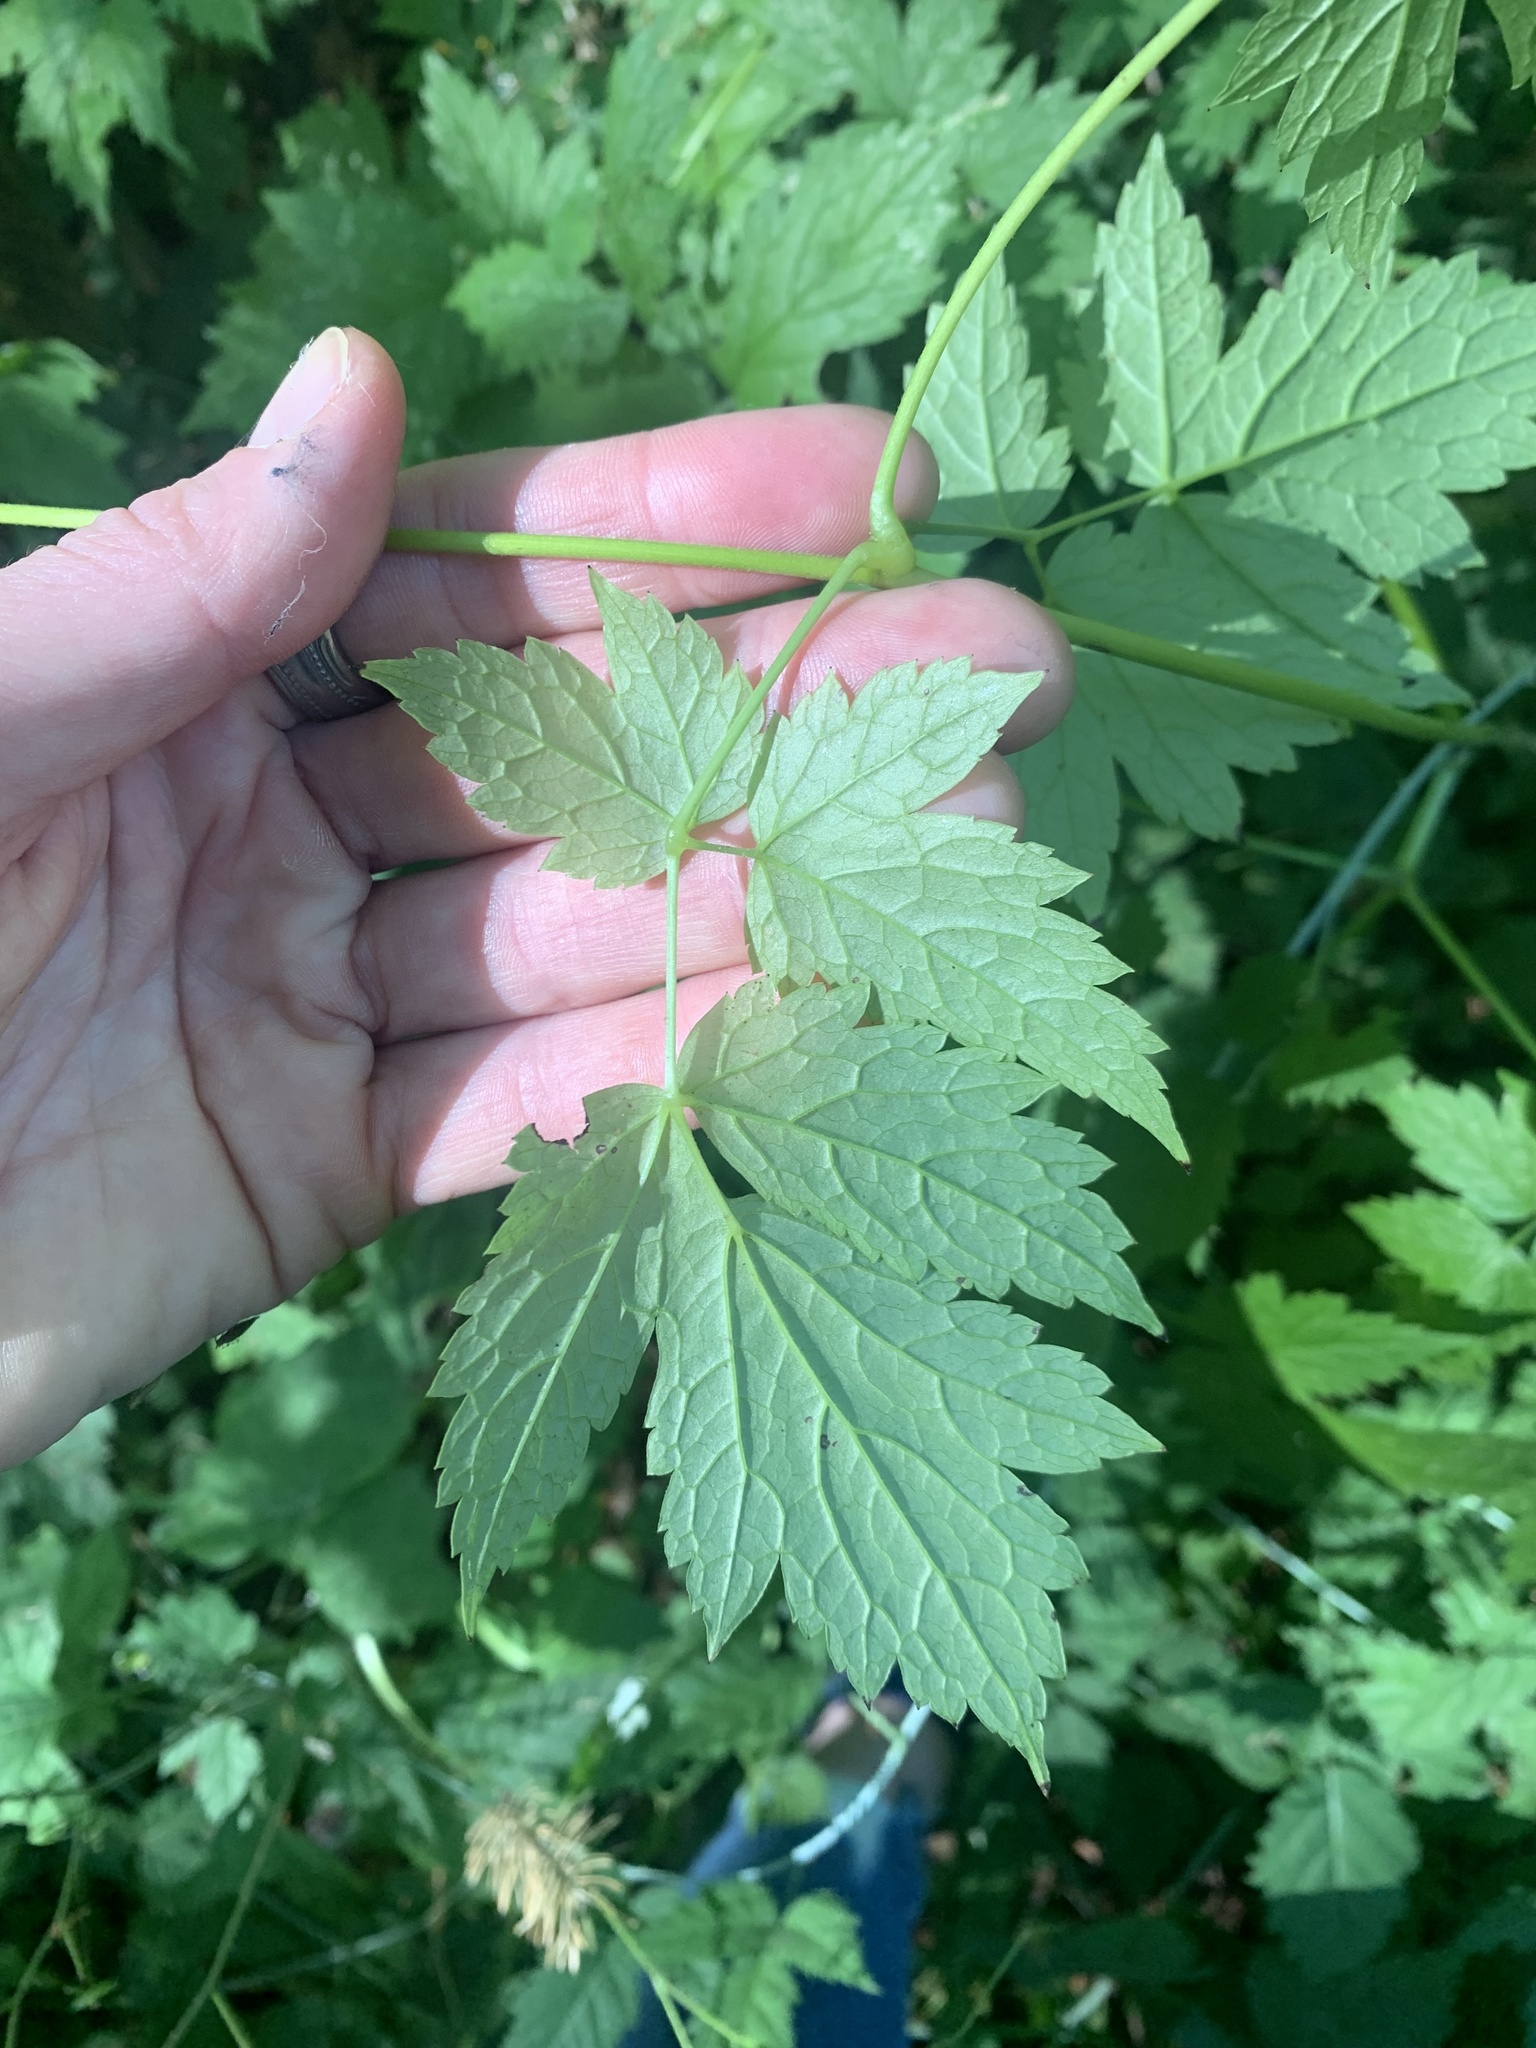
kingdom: Plantae
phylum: Tracheophyta
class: Magnoliopsida
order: Ranunculales
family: Ranunculaceae
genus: Actaea
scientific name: Actaea rubra
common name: Red baneberry
